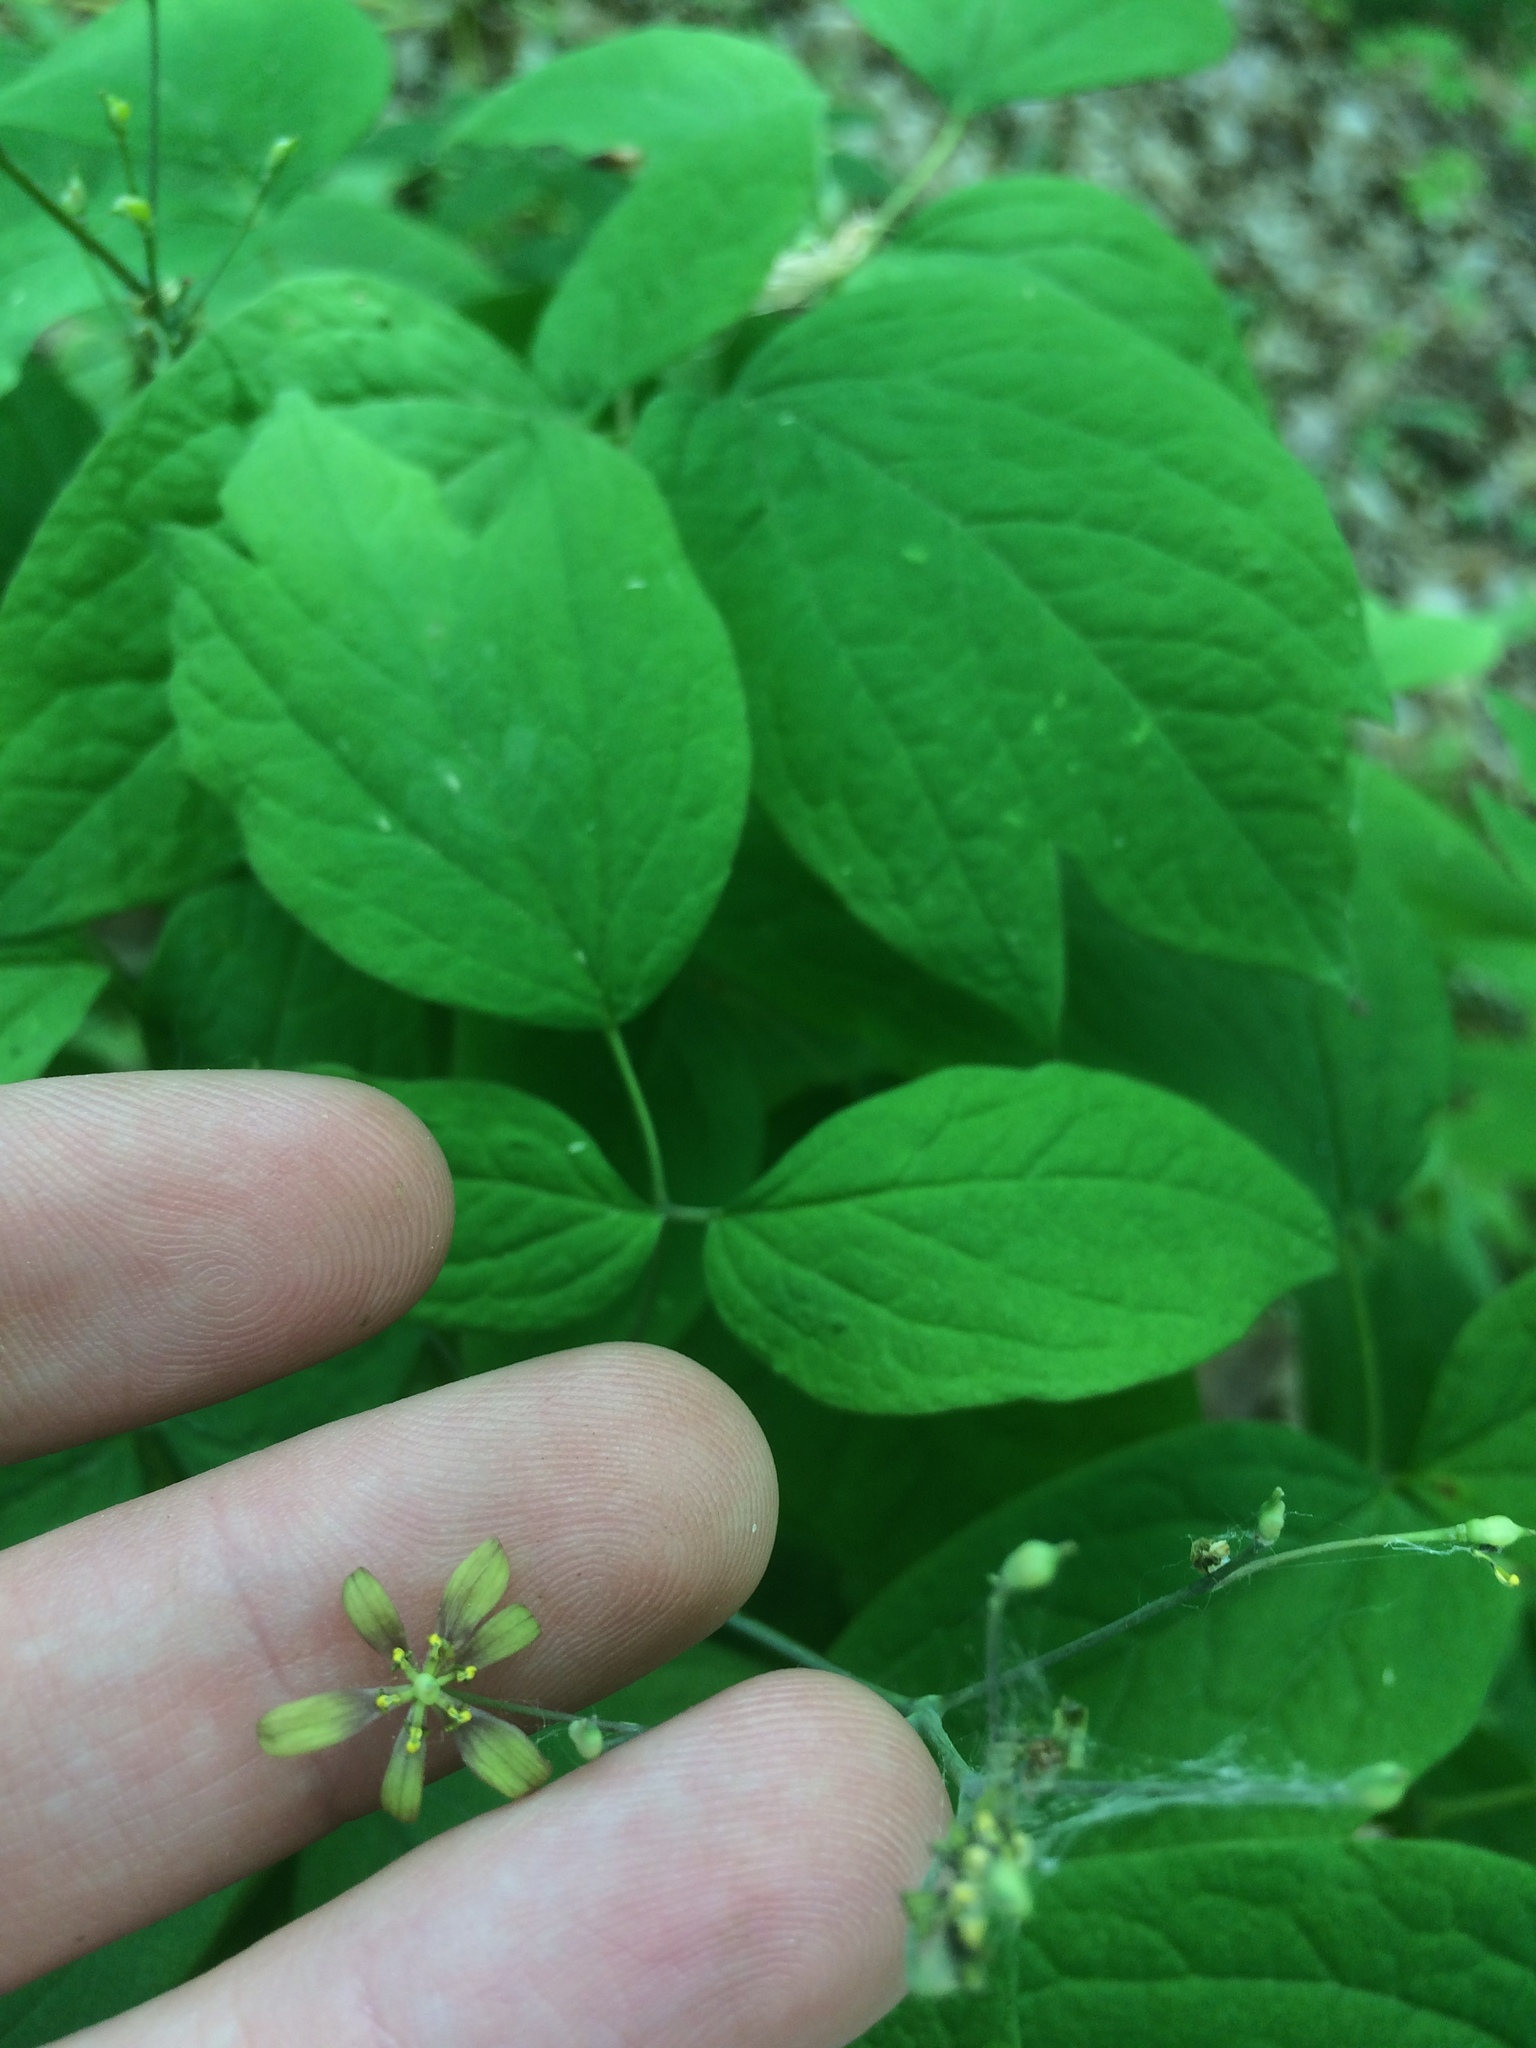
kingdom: Plantae
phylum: Tracheophyta
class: Magnoliopsida
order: Ranunculales
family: Berberidaceae
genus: Caulophyllum
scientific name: Caulophyllum thalictroides
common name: Blue cohosh
